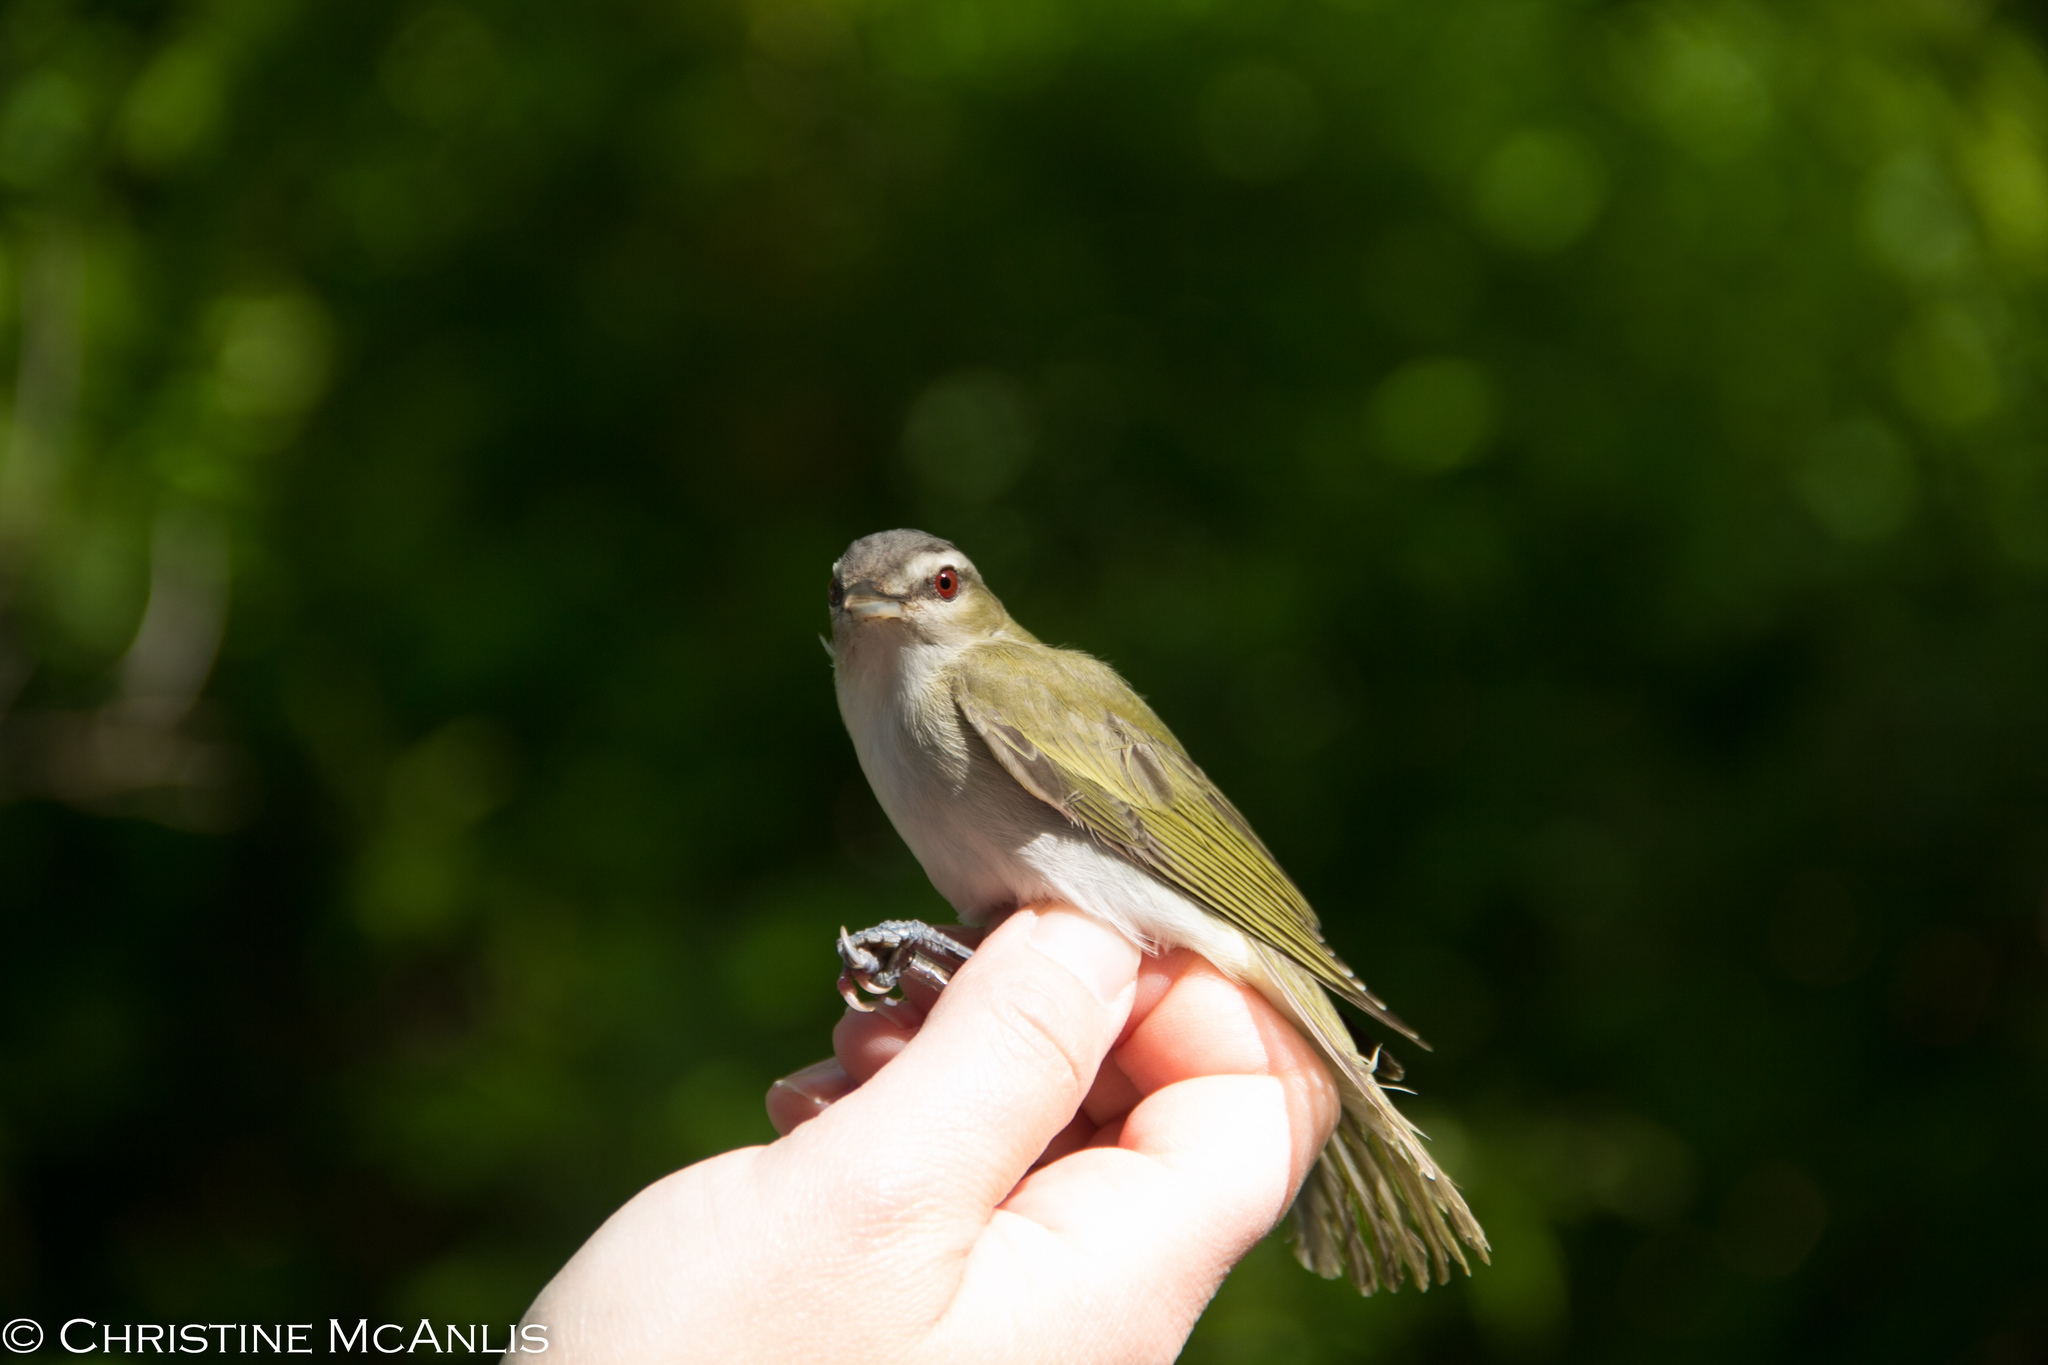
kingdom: Animalia
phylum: Chordata
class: Aves
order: Passeriformes
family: Vireonidae
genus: Vireo
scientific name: Vireo olivaceus
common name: Red-eyed vireo
